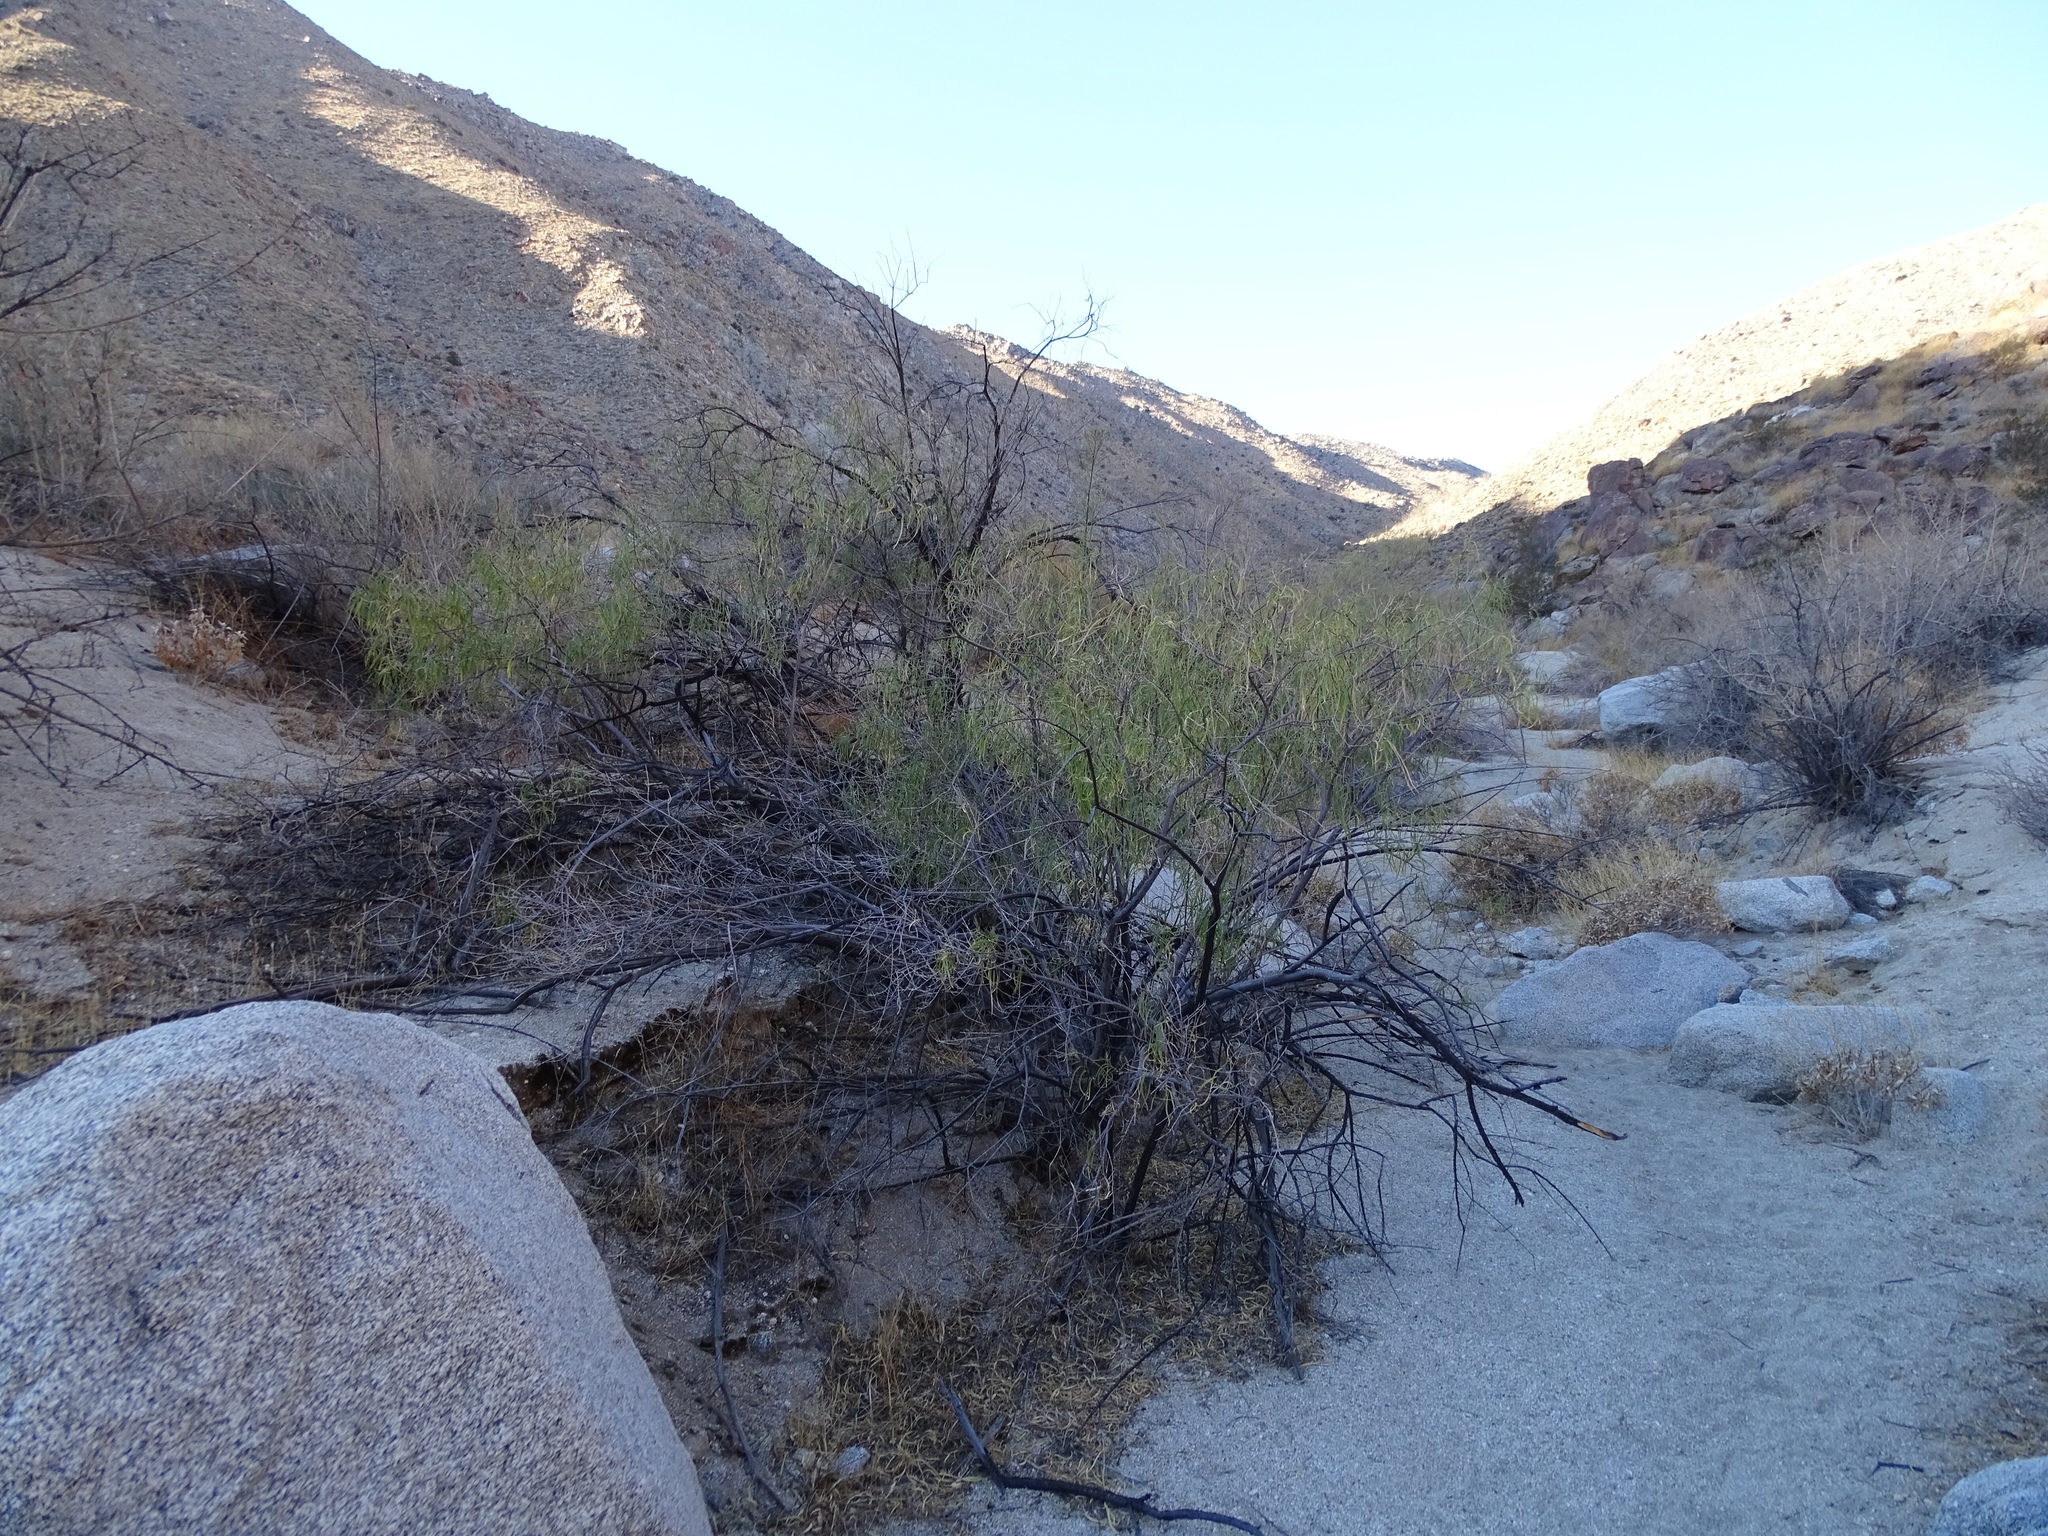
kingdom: Plantae
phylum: Tracheophyta
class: Magnoliopsida
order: Lamiales
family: Bignoniaceae
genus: Chilopsis
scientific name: Chilopsis linearis
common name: Desert-willow
